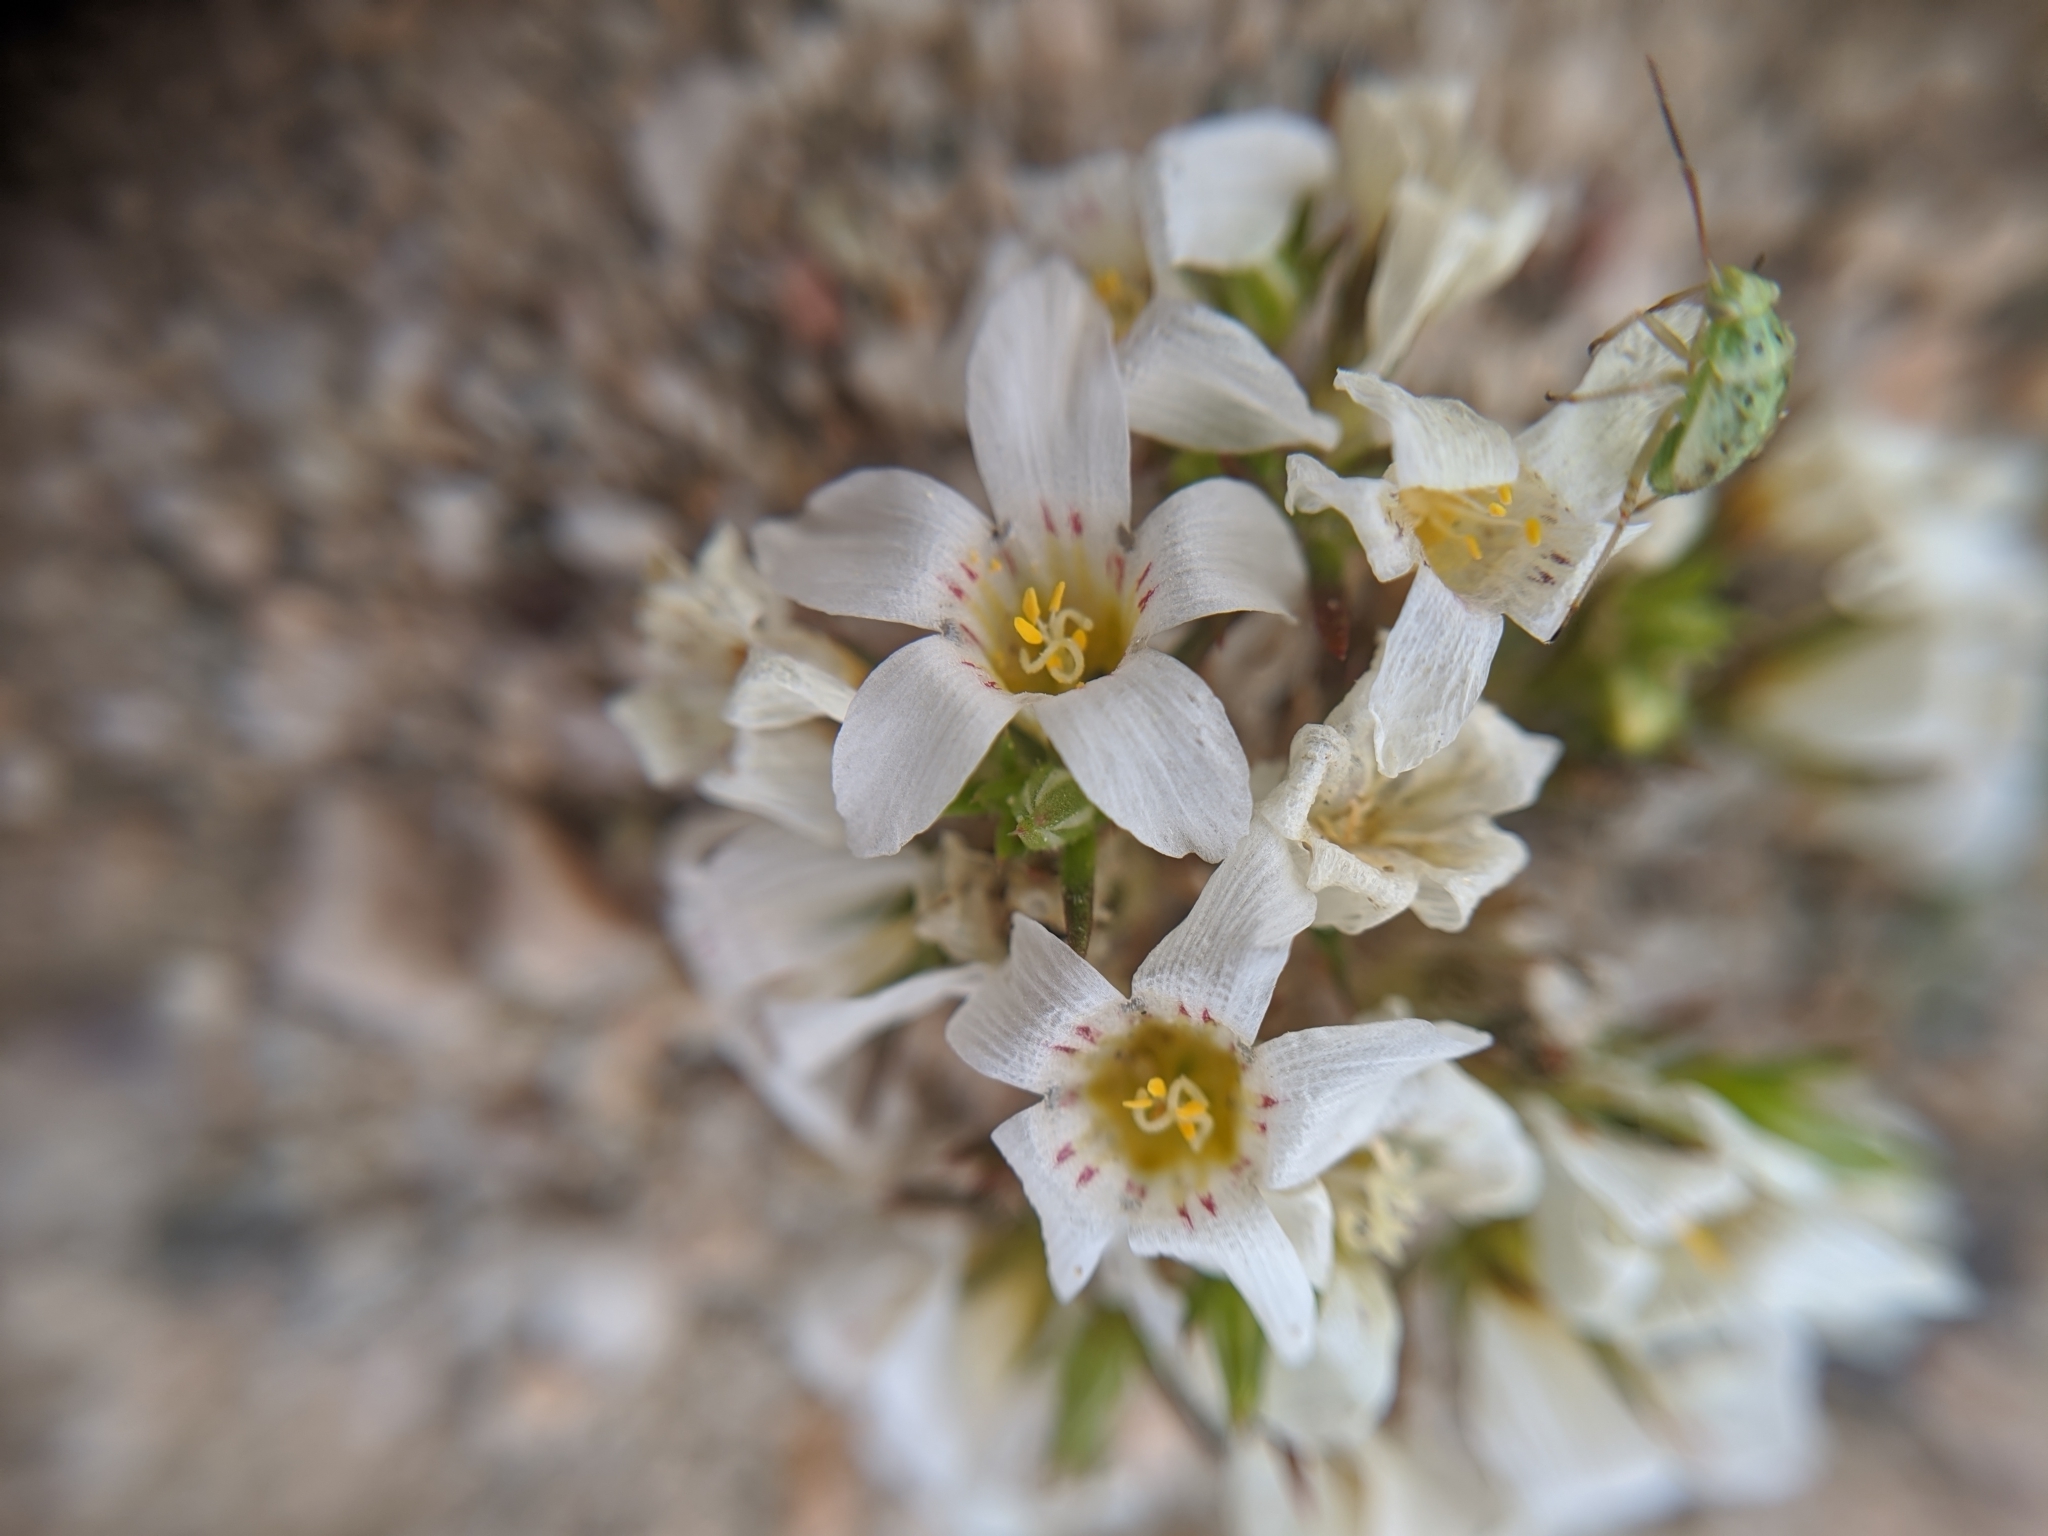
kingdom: Plantae
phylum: Tracheophyta
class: Magnoliopsida
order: Ericales
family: Polemoniaceae
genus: Linanthus
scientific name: Linanthus demissus
